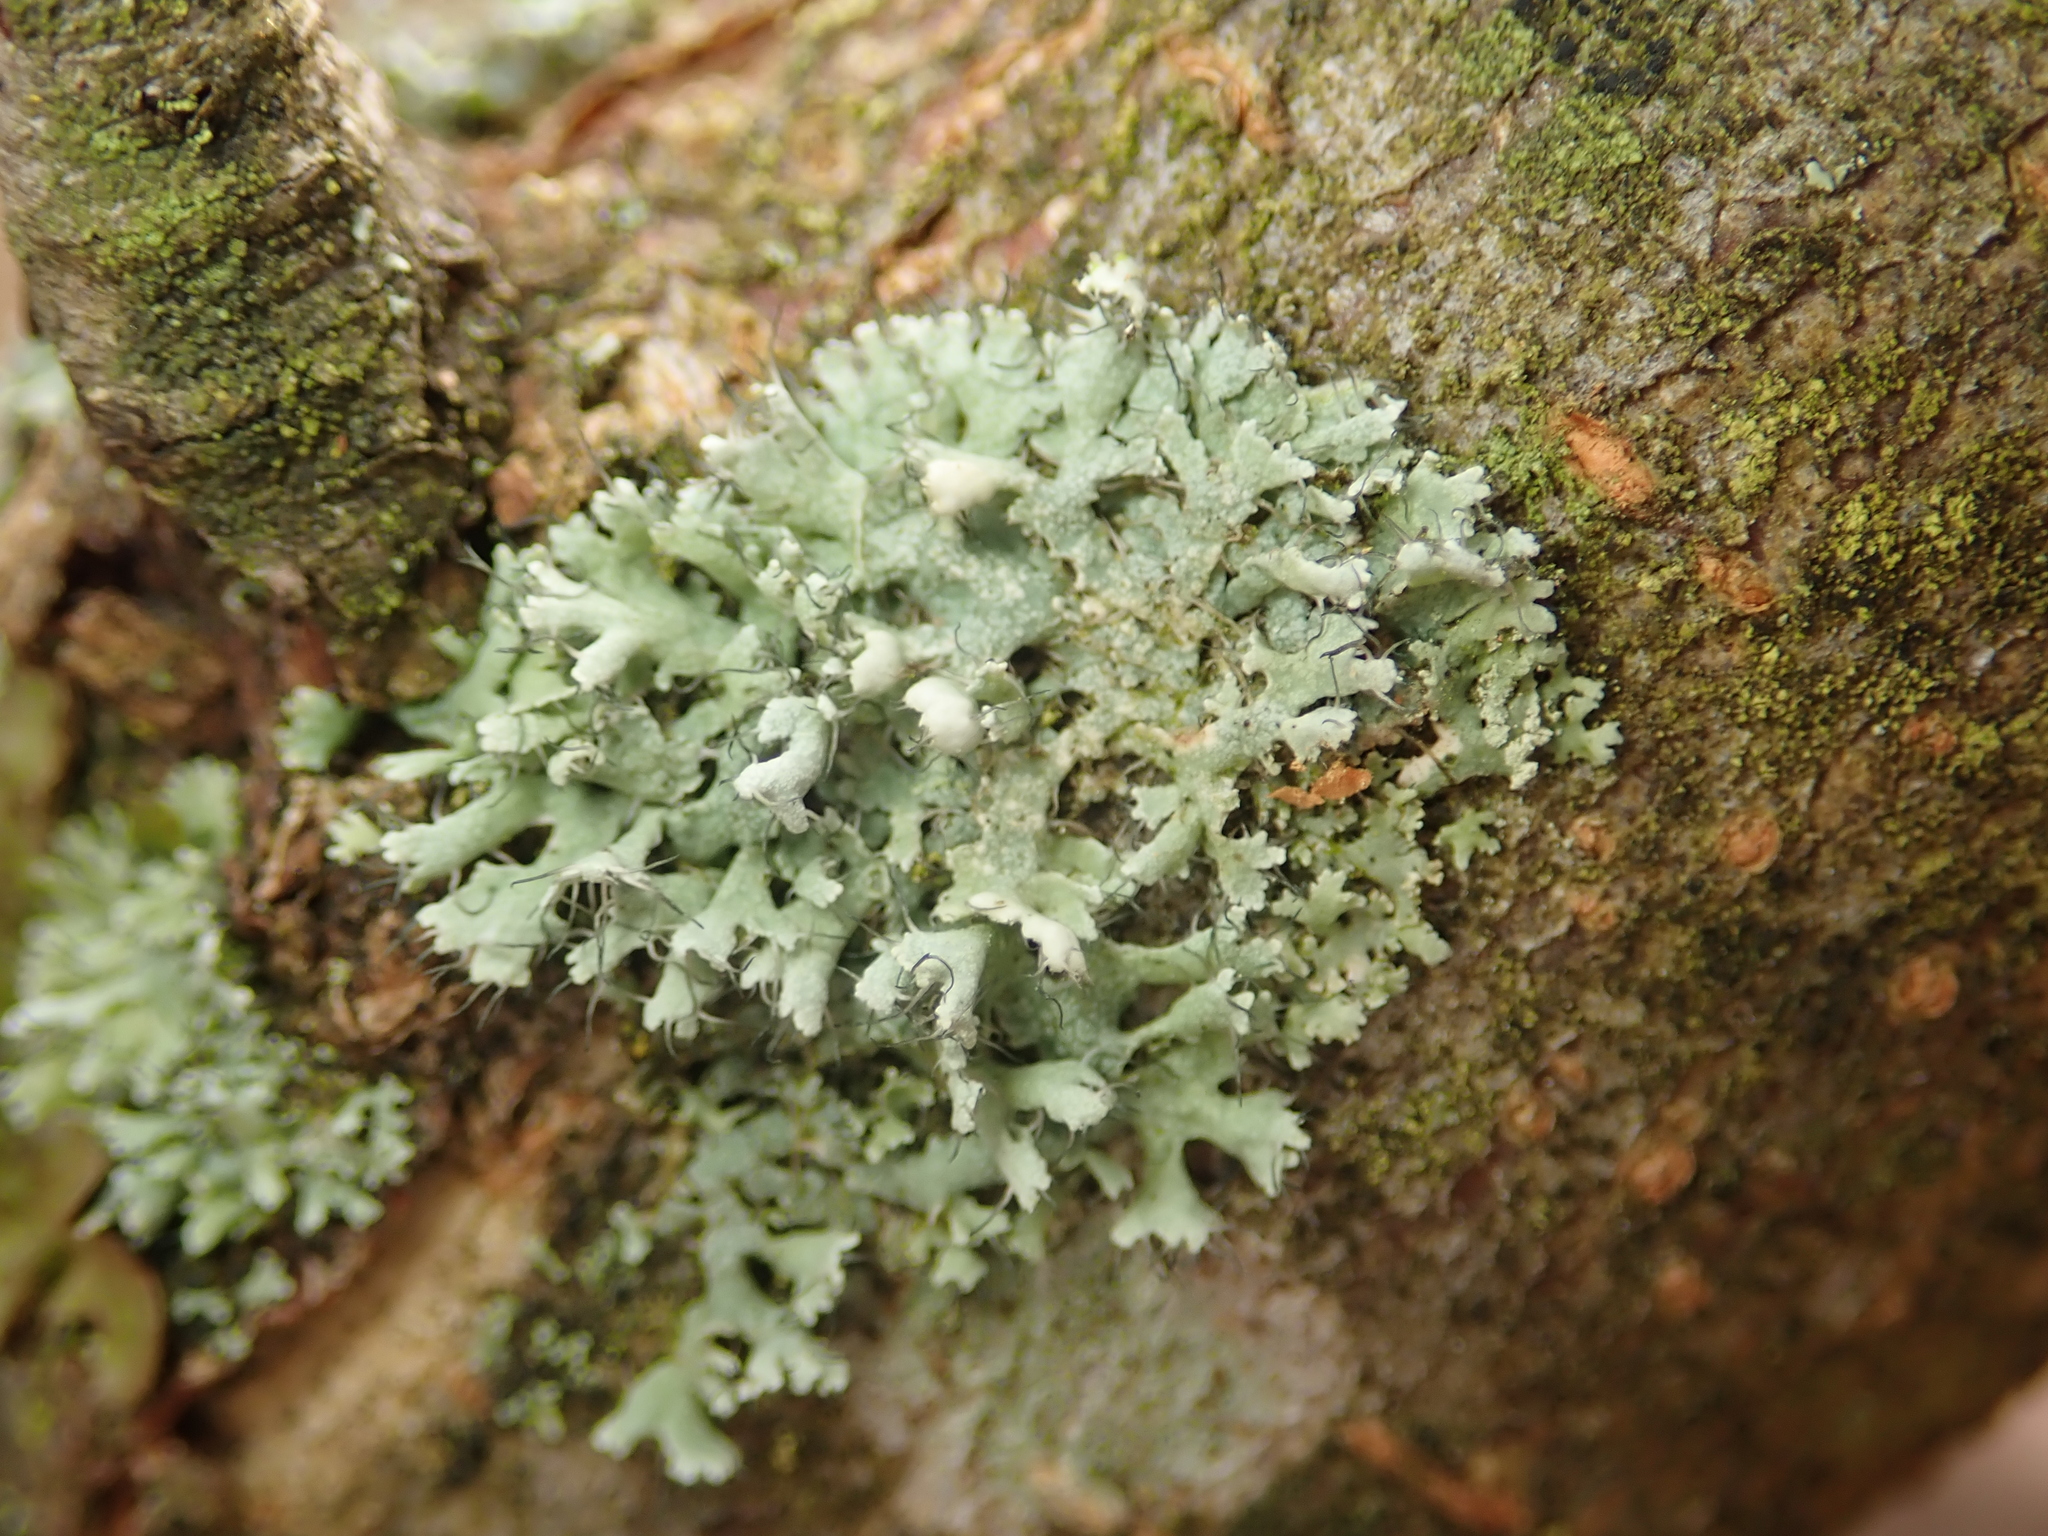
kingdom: Fungi
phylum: Ascomycota
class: Lecanoromycetes
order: Caliciales
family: Physciaceae
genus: Physcia
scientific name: Physcia adscendens
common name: Hooded rosette lichen
